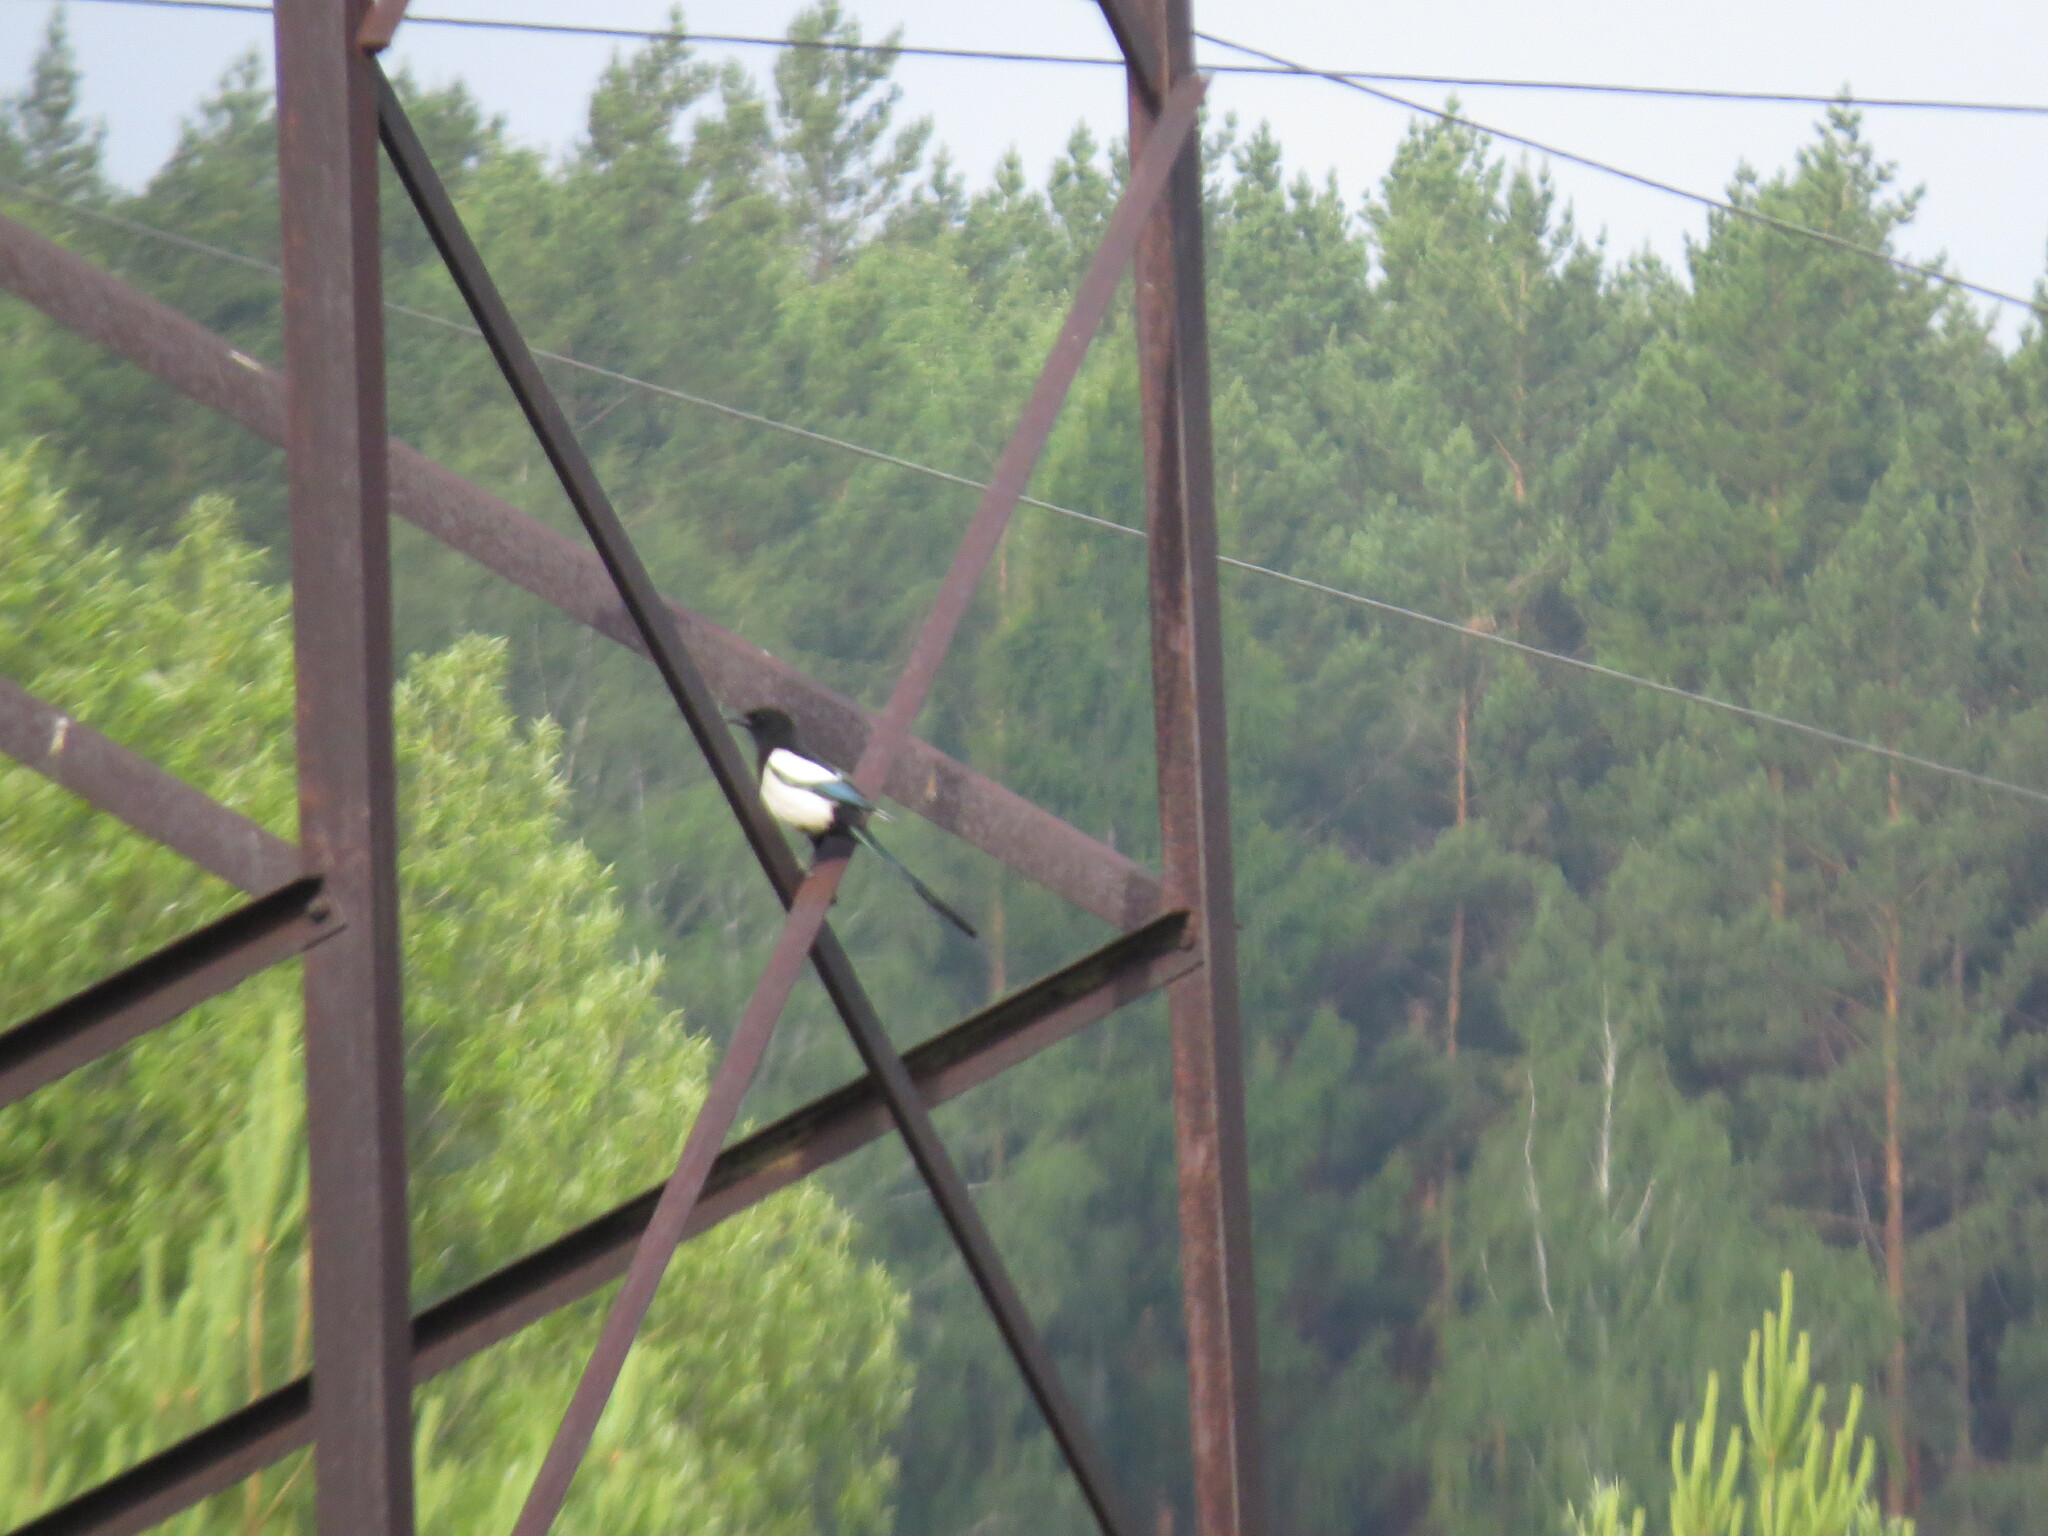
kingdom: Animalia
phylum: Chordata
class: Aves
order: Passeriformes
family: Corvidae
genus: Pica
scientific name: Pica pica
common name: Eurasian magpie
